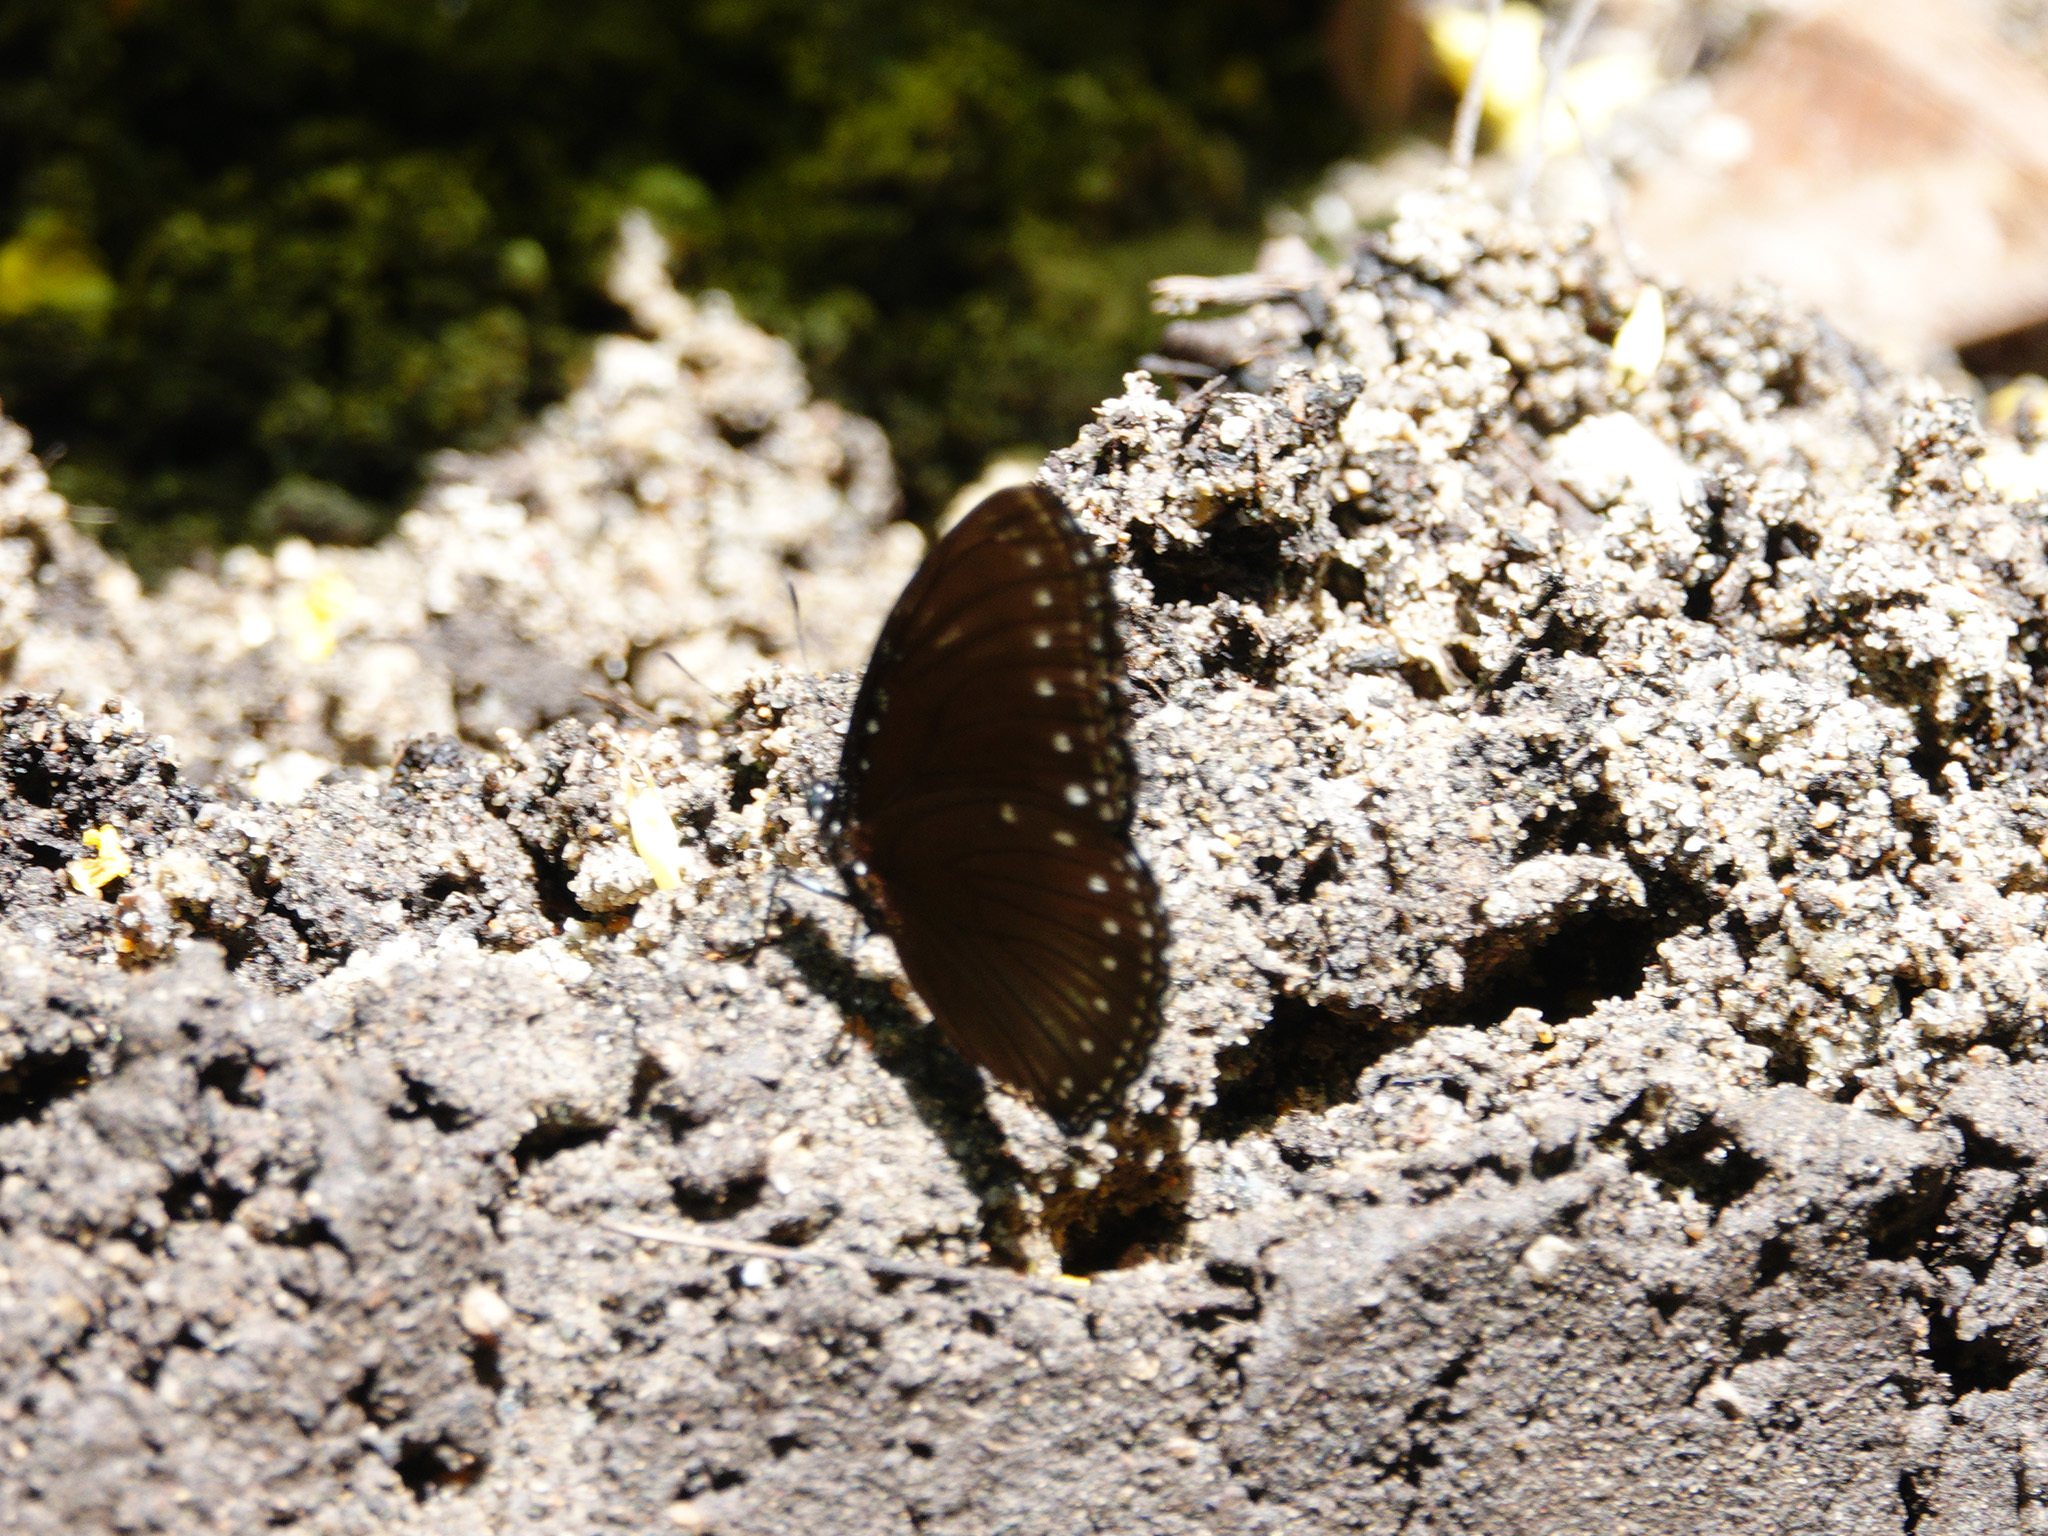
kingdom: Animalia
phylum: Arthropoda
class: Insecta
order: Lepidoptera
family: Nymphalidae
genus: Hypolimnas
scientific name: Hypolimnas anomala
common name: Malayan eggfly
